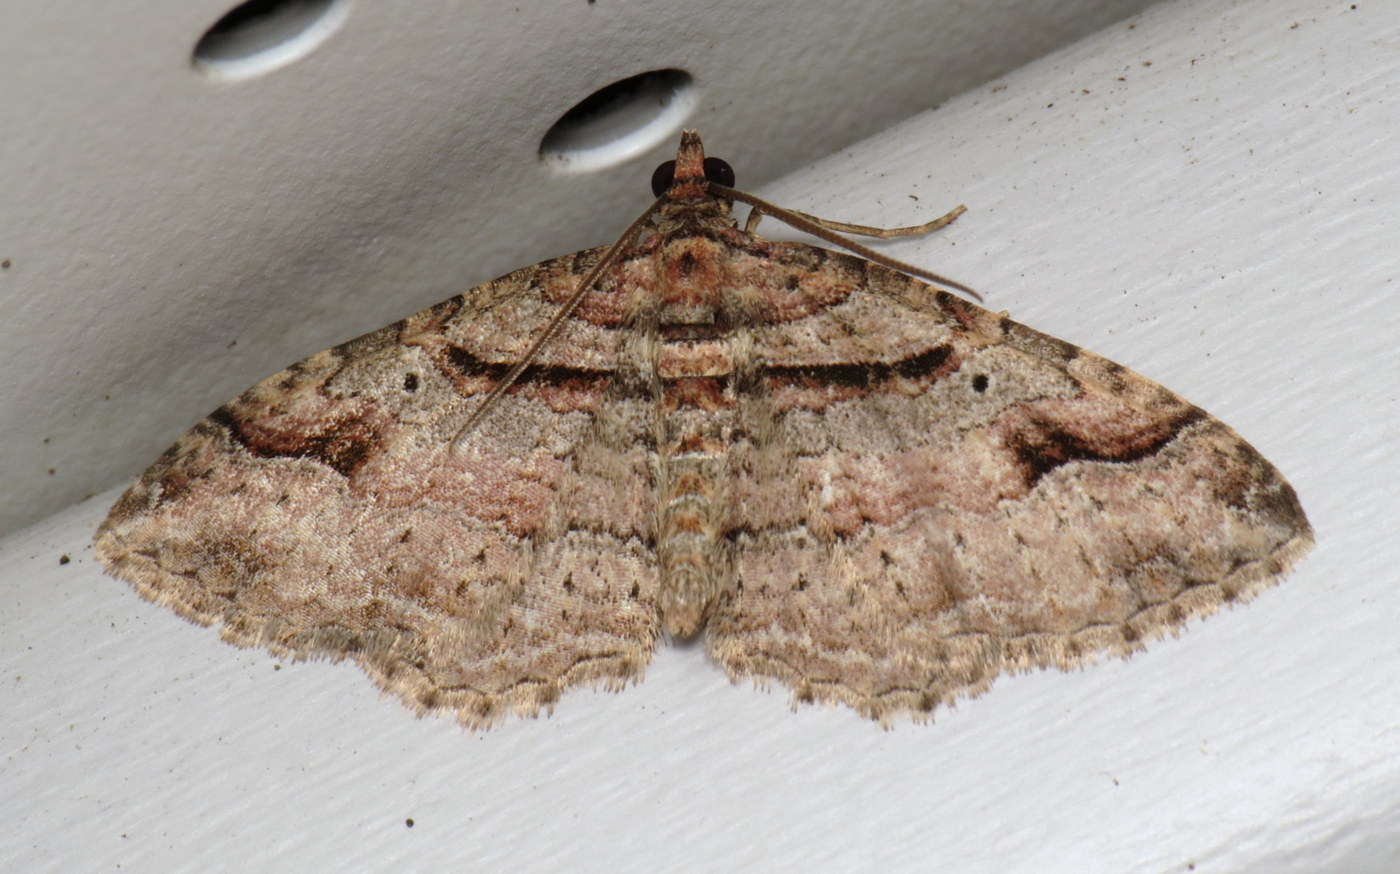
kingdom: Animalia
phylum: Arthropoda
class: Insecta
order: Lepidoptera
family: Geometridae
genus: Costaconvexa
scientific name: Costaconvexa centrostrigaria
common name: Bent-line carpet
